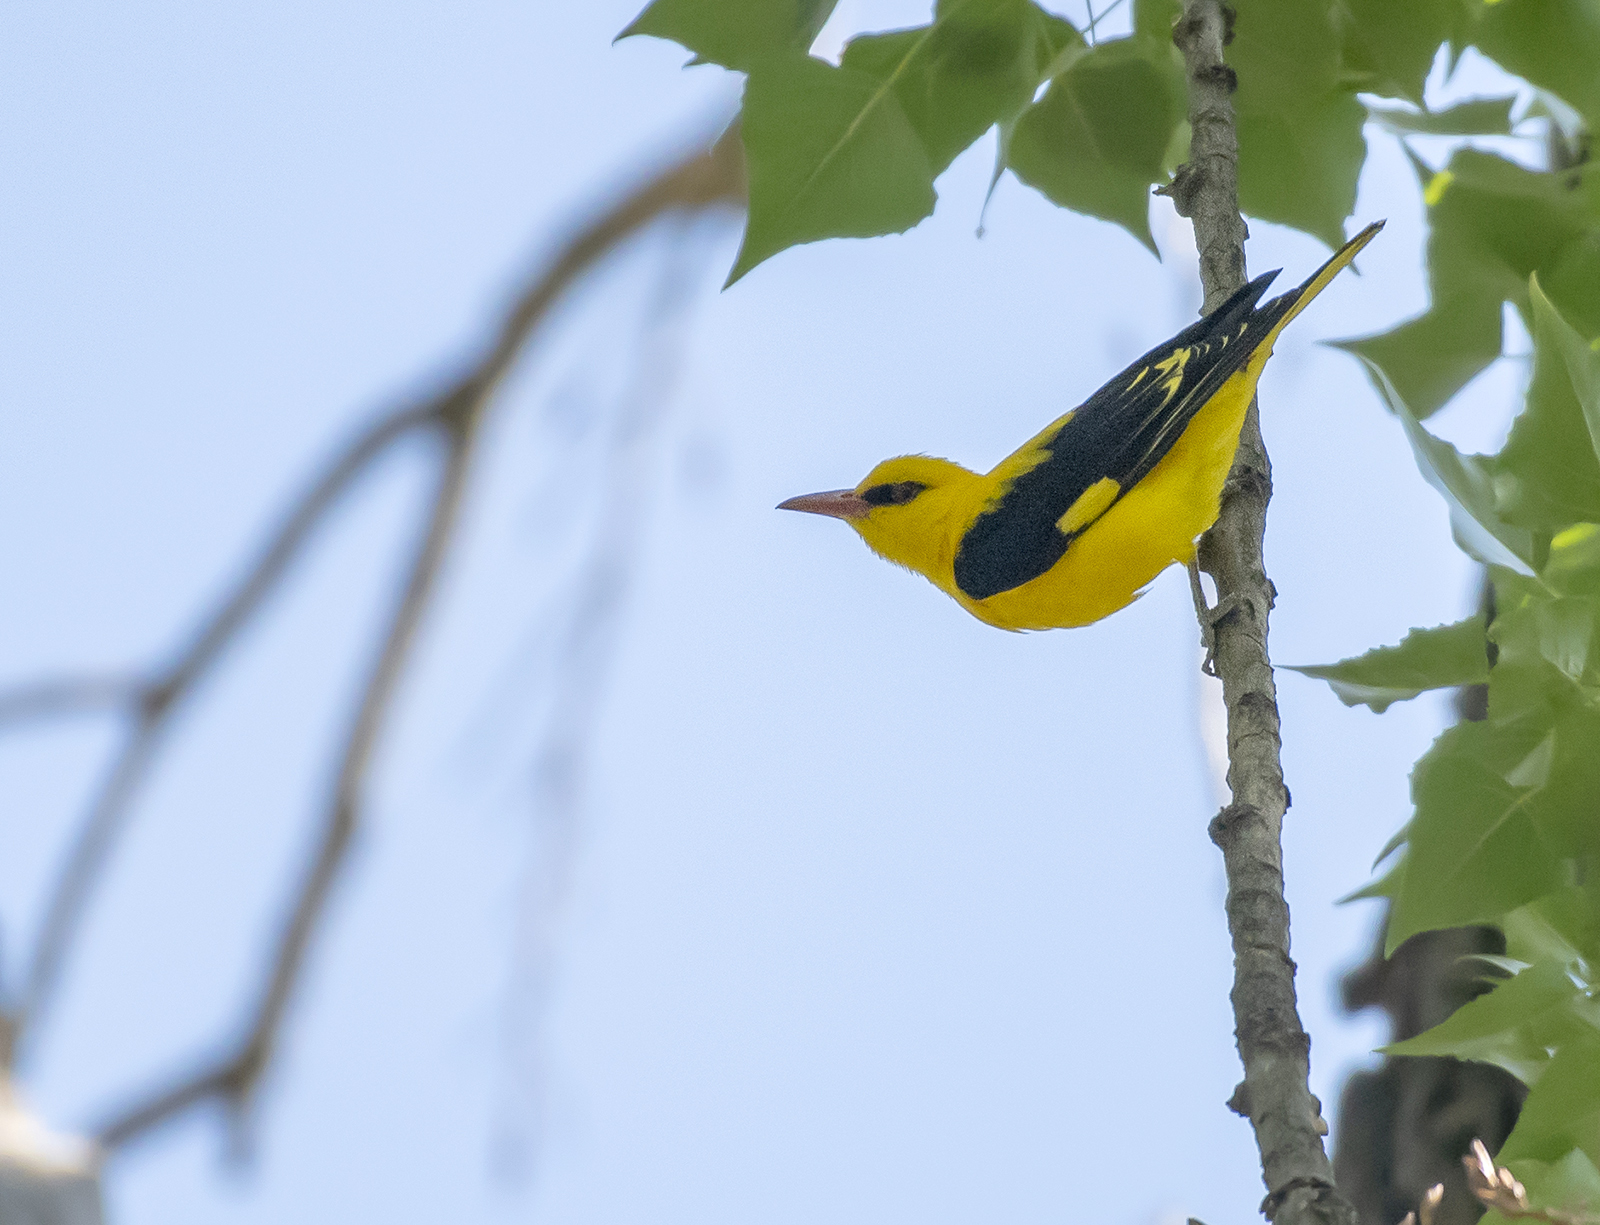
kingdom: Animalia
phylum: Chordata
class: Aves
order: Passeriformes
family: Oriolidae
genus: Oriolus
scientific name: Oriolus kundoo
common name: Indian golden oriole
